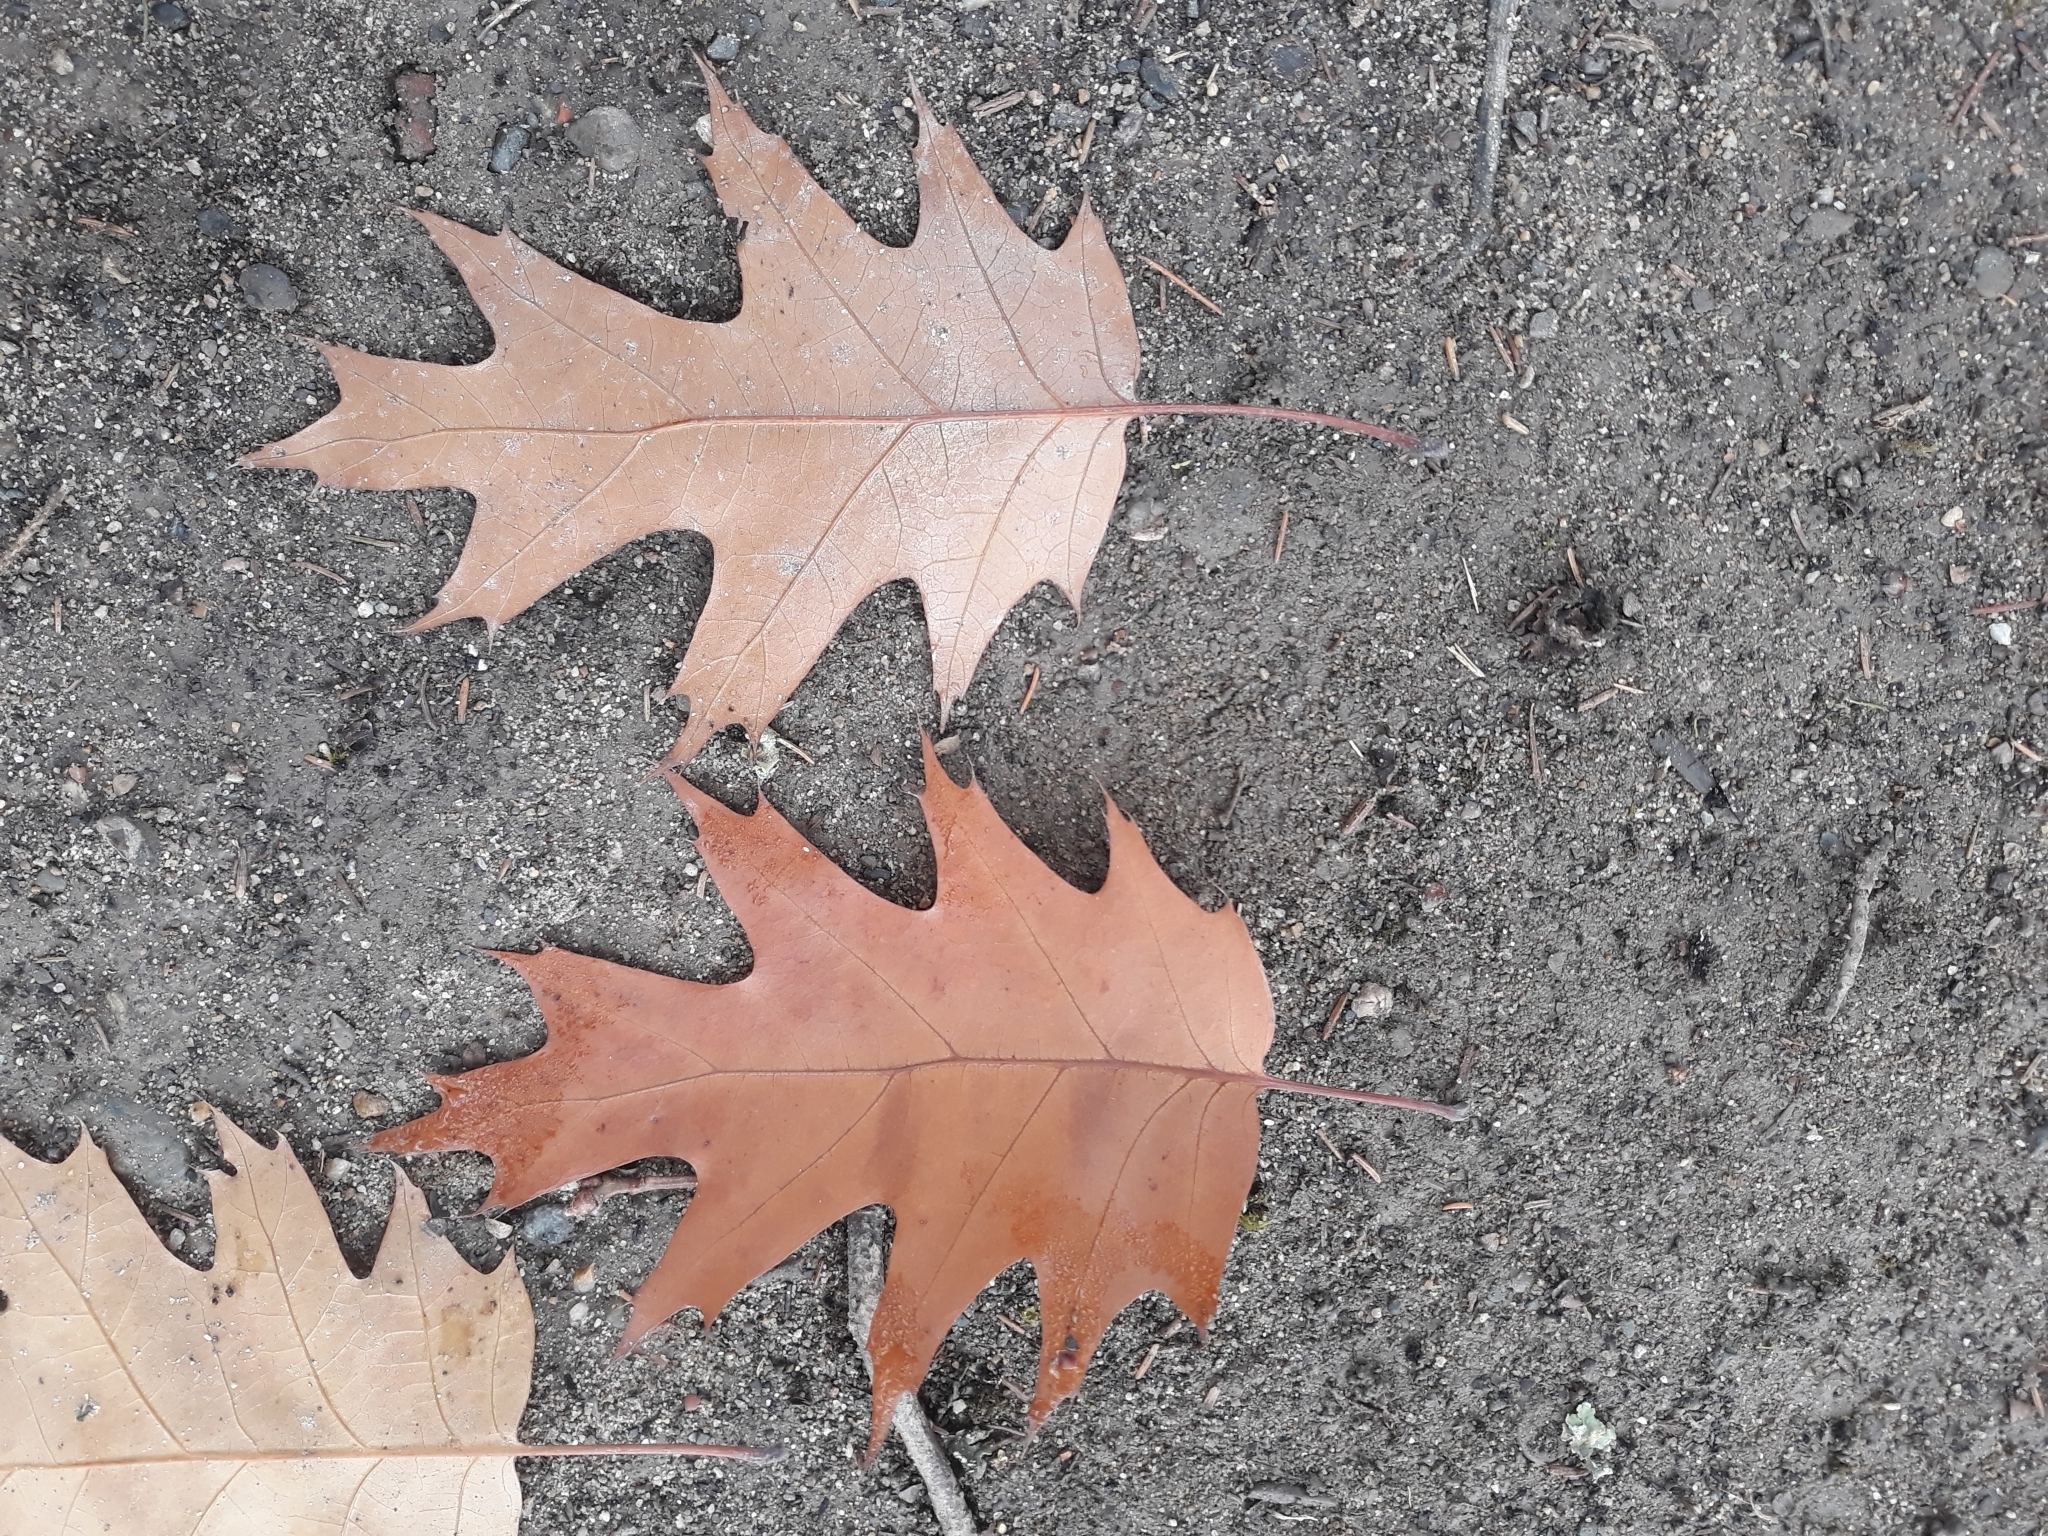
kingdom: Plantae
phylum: Tracheophyta
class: Magnoliopsida
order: Fagales
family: Fagaceae
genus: Quercus
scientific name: Quercus rubra
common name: Red oak
